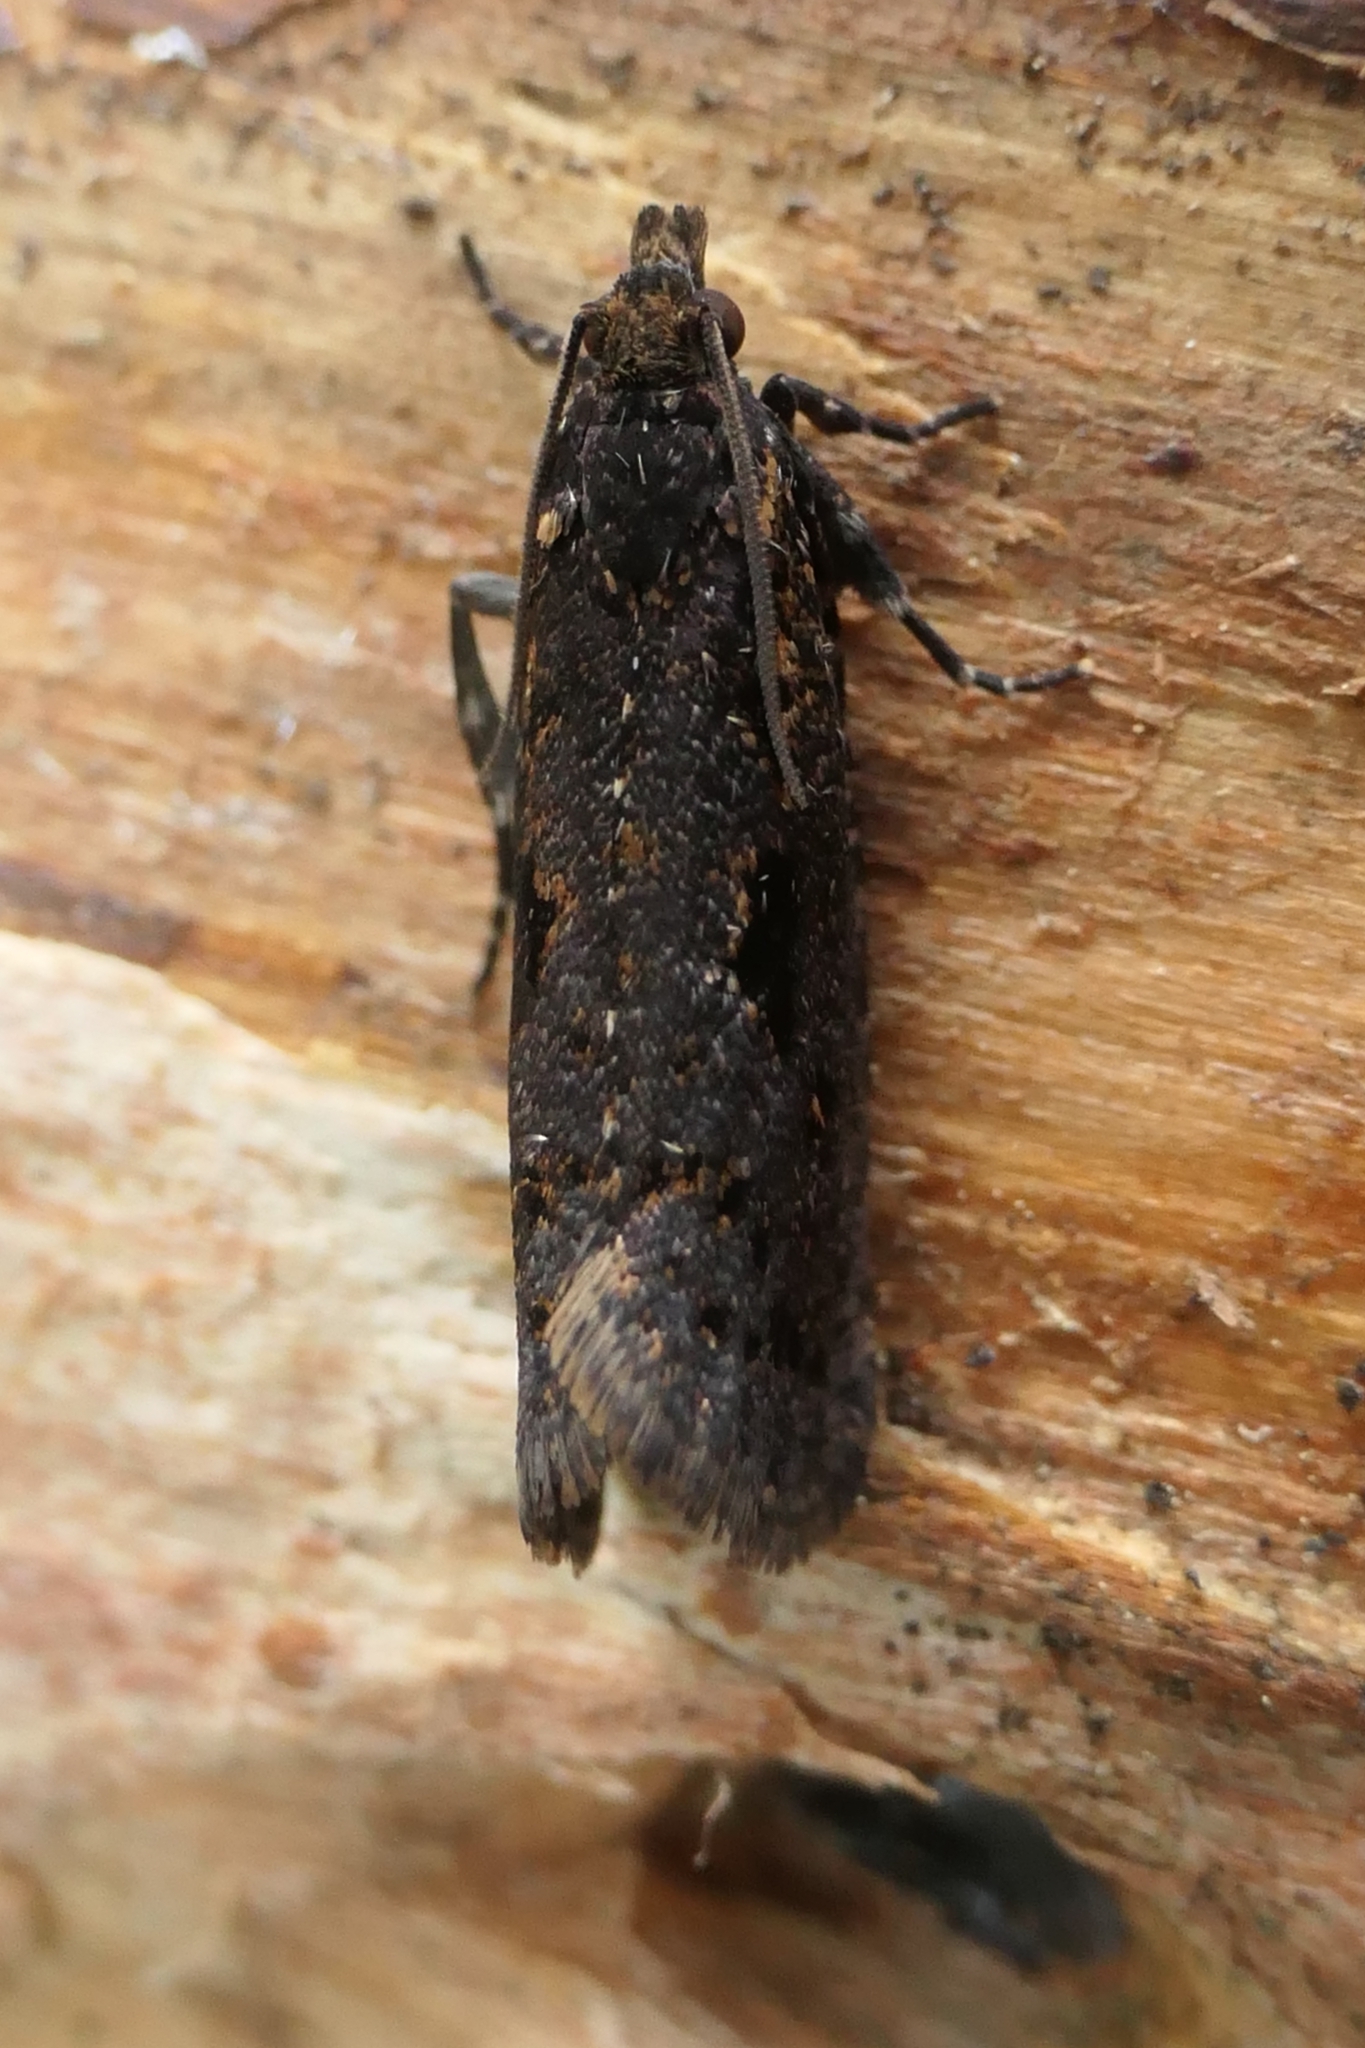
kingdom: Animalia
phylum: Arthropoda
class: Insecta
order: Lepidoptera
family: Tortricidae
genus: Cryptaspasma
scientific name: Cryptaspasma querula
